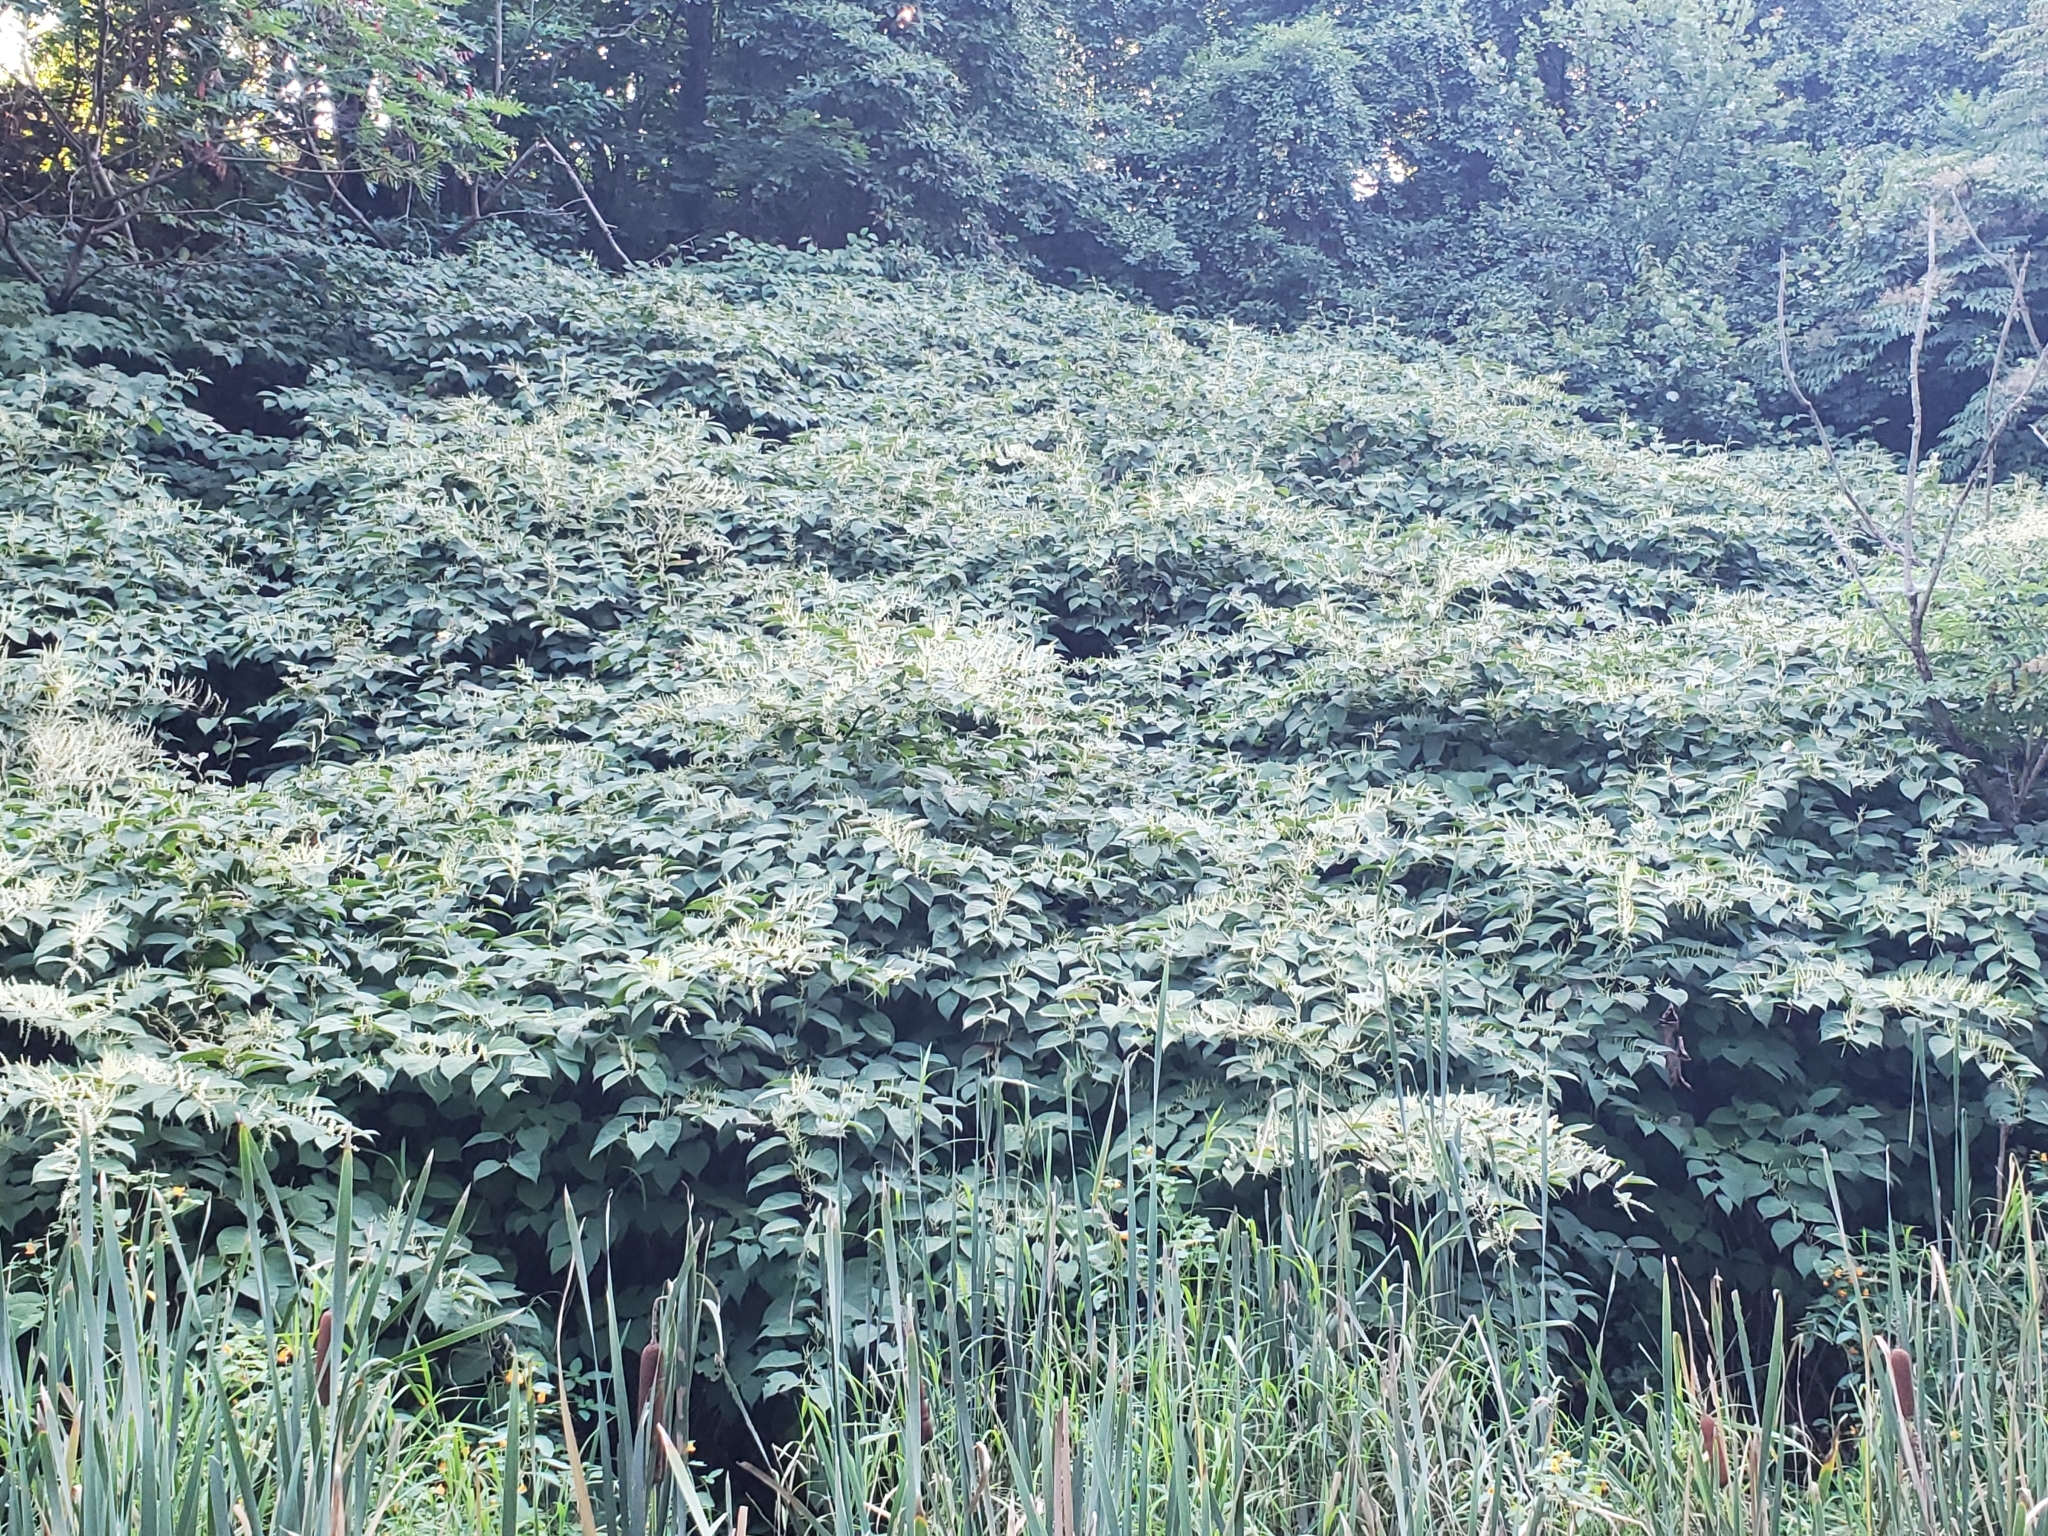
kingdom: Plantae
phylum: Tracheophyta
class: Magnoliopsida
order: Caryophyllales
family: Polygonaceae
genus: Reynoutria
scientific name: Reynoutria japonica
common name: Japanese knotweed
